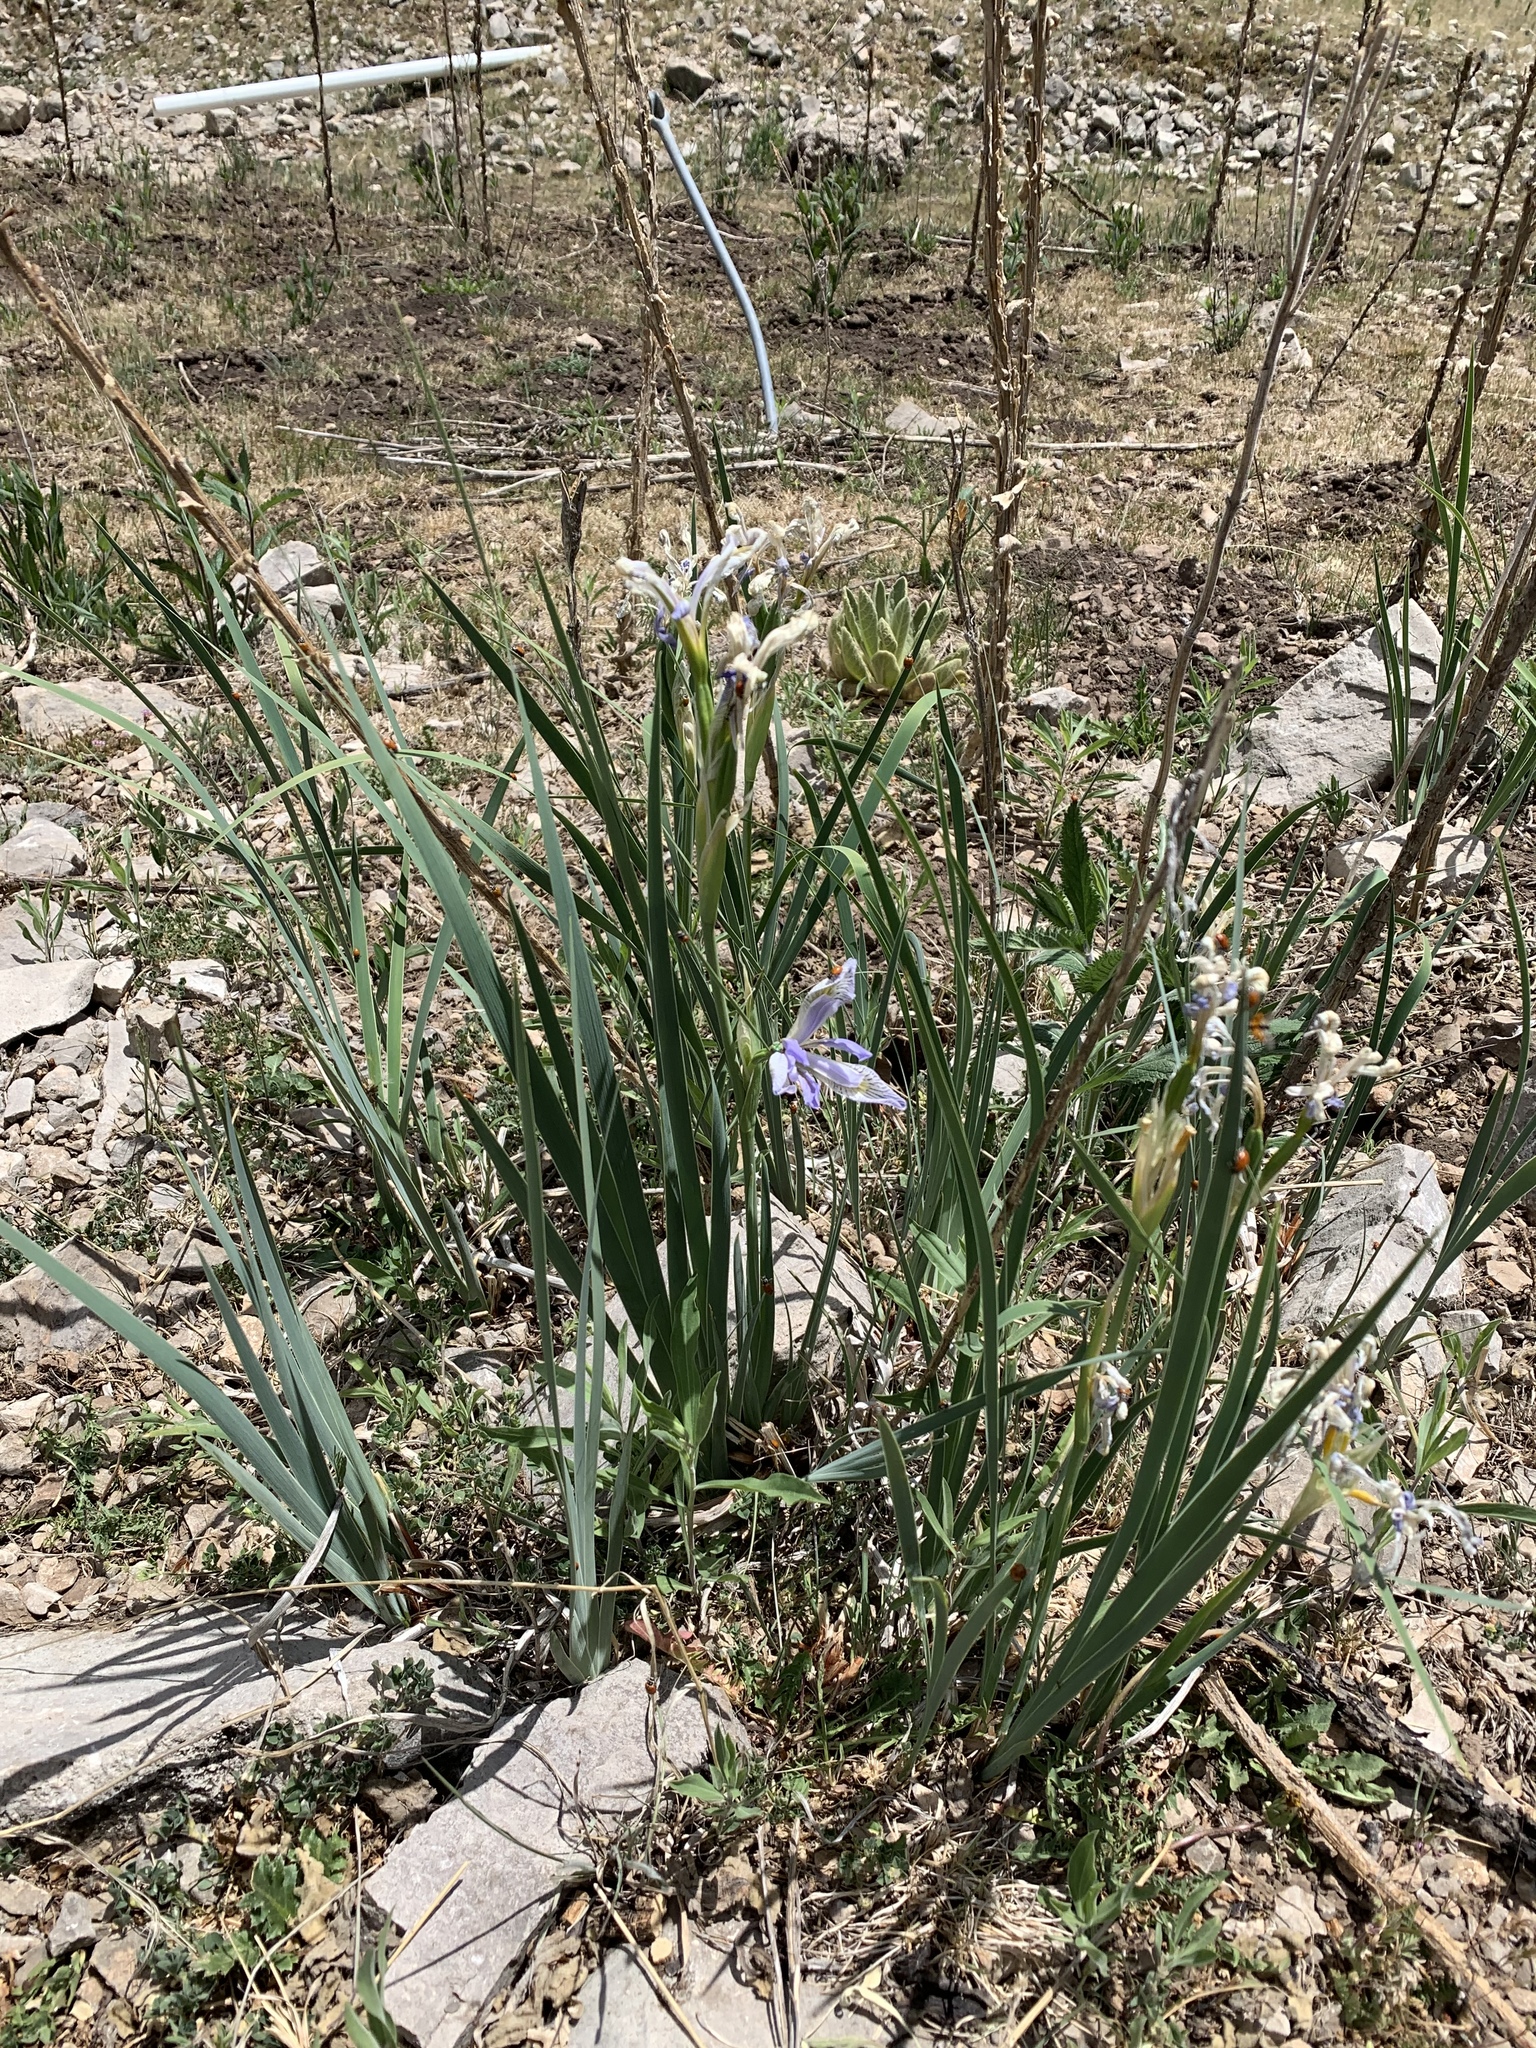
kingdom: Plantae
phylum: Tracheophyta
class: Liliopsida
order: Asparagales
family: Iridaceae
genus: Iris
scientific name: Iris missouriensis
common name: Rocky mountain iris
